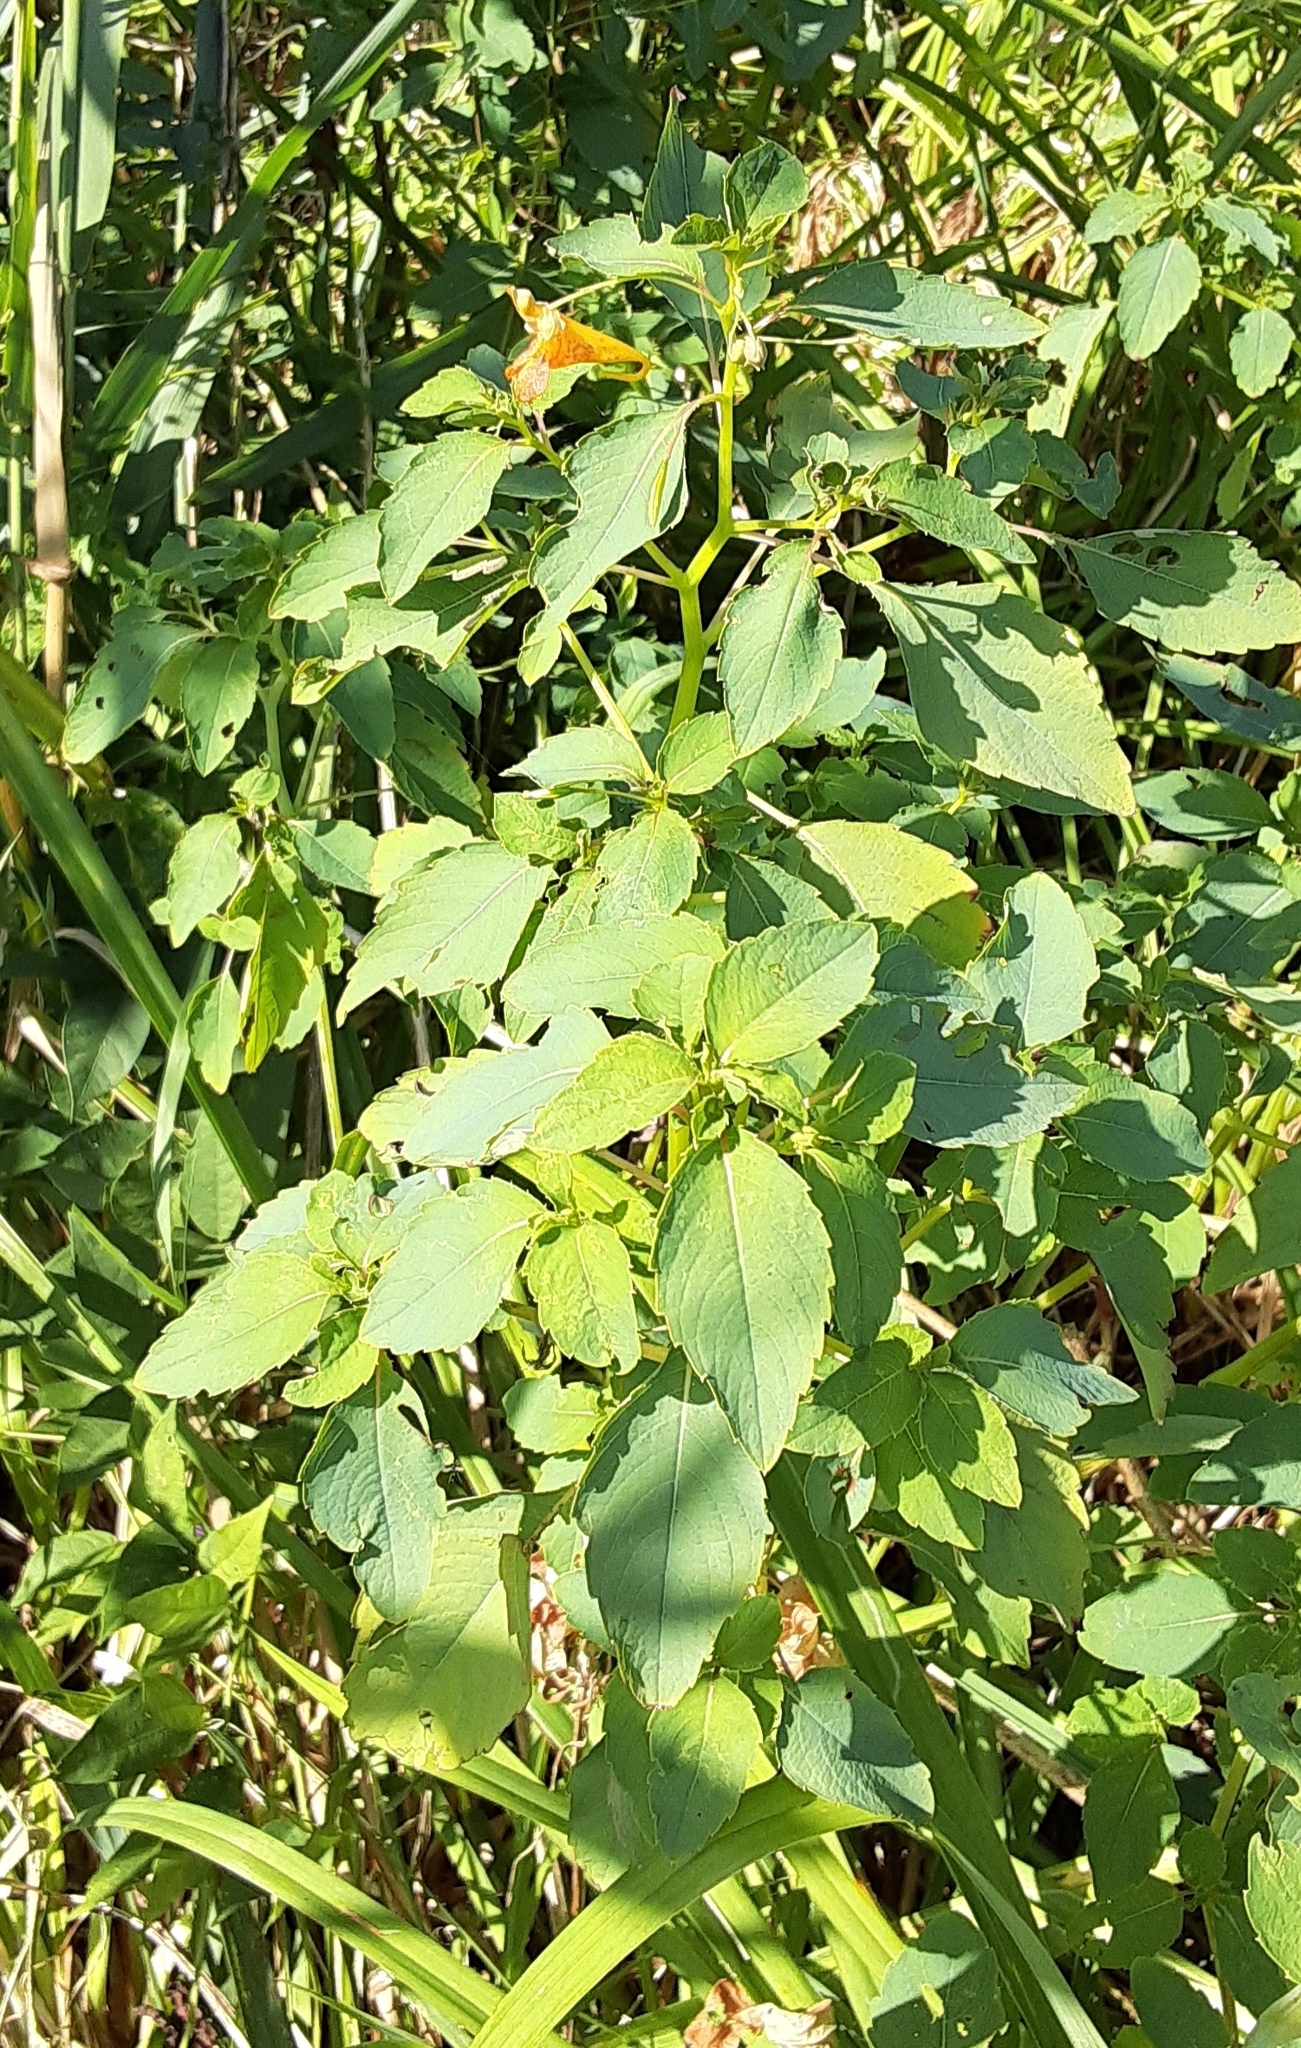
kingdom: Plantae
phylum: Tracheophyta
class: Magnoliopsida
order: Ericales
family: Balsaminaceae
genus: Impatiens
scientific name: Impatiens capensis
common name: Orange balsam
